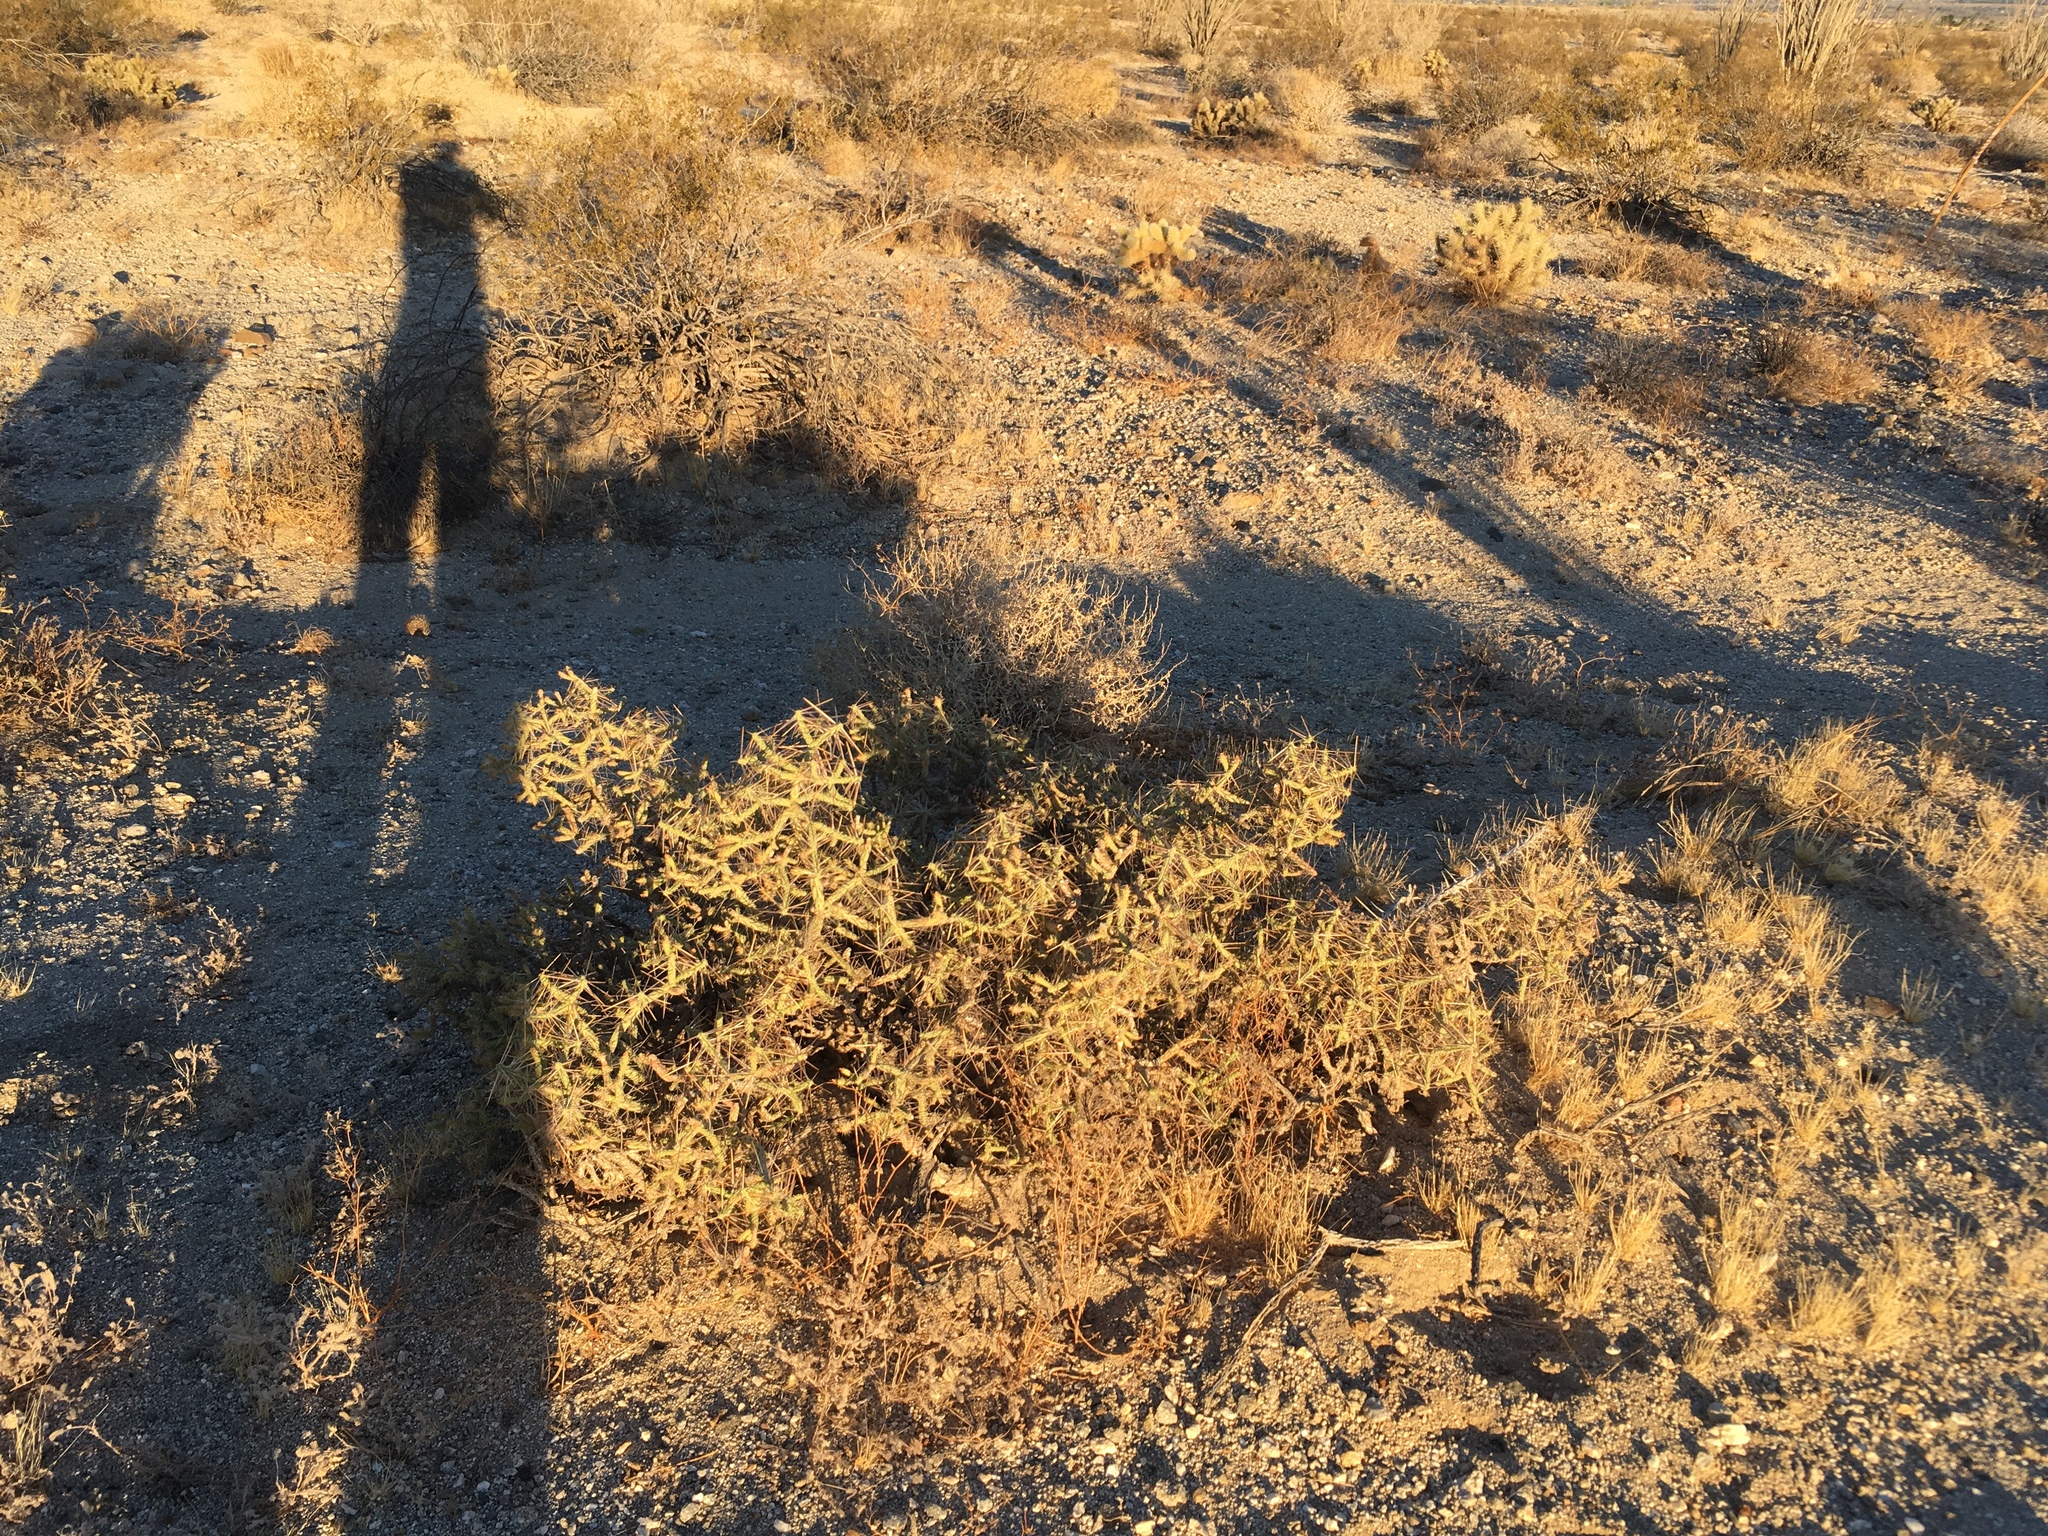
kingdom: Plantae
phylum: Tracheophyta
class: Magnoliopsida
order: Caryophyllales
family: Cactaceae
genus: Cylindropuntia
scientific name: Cylindropuntia ramosissima
